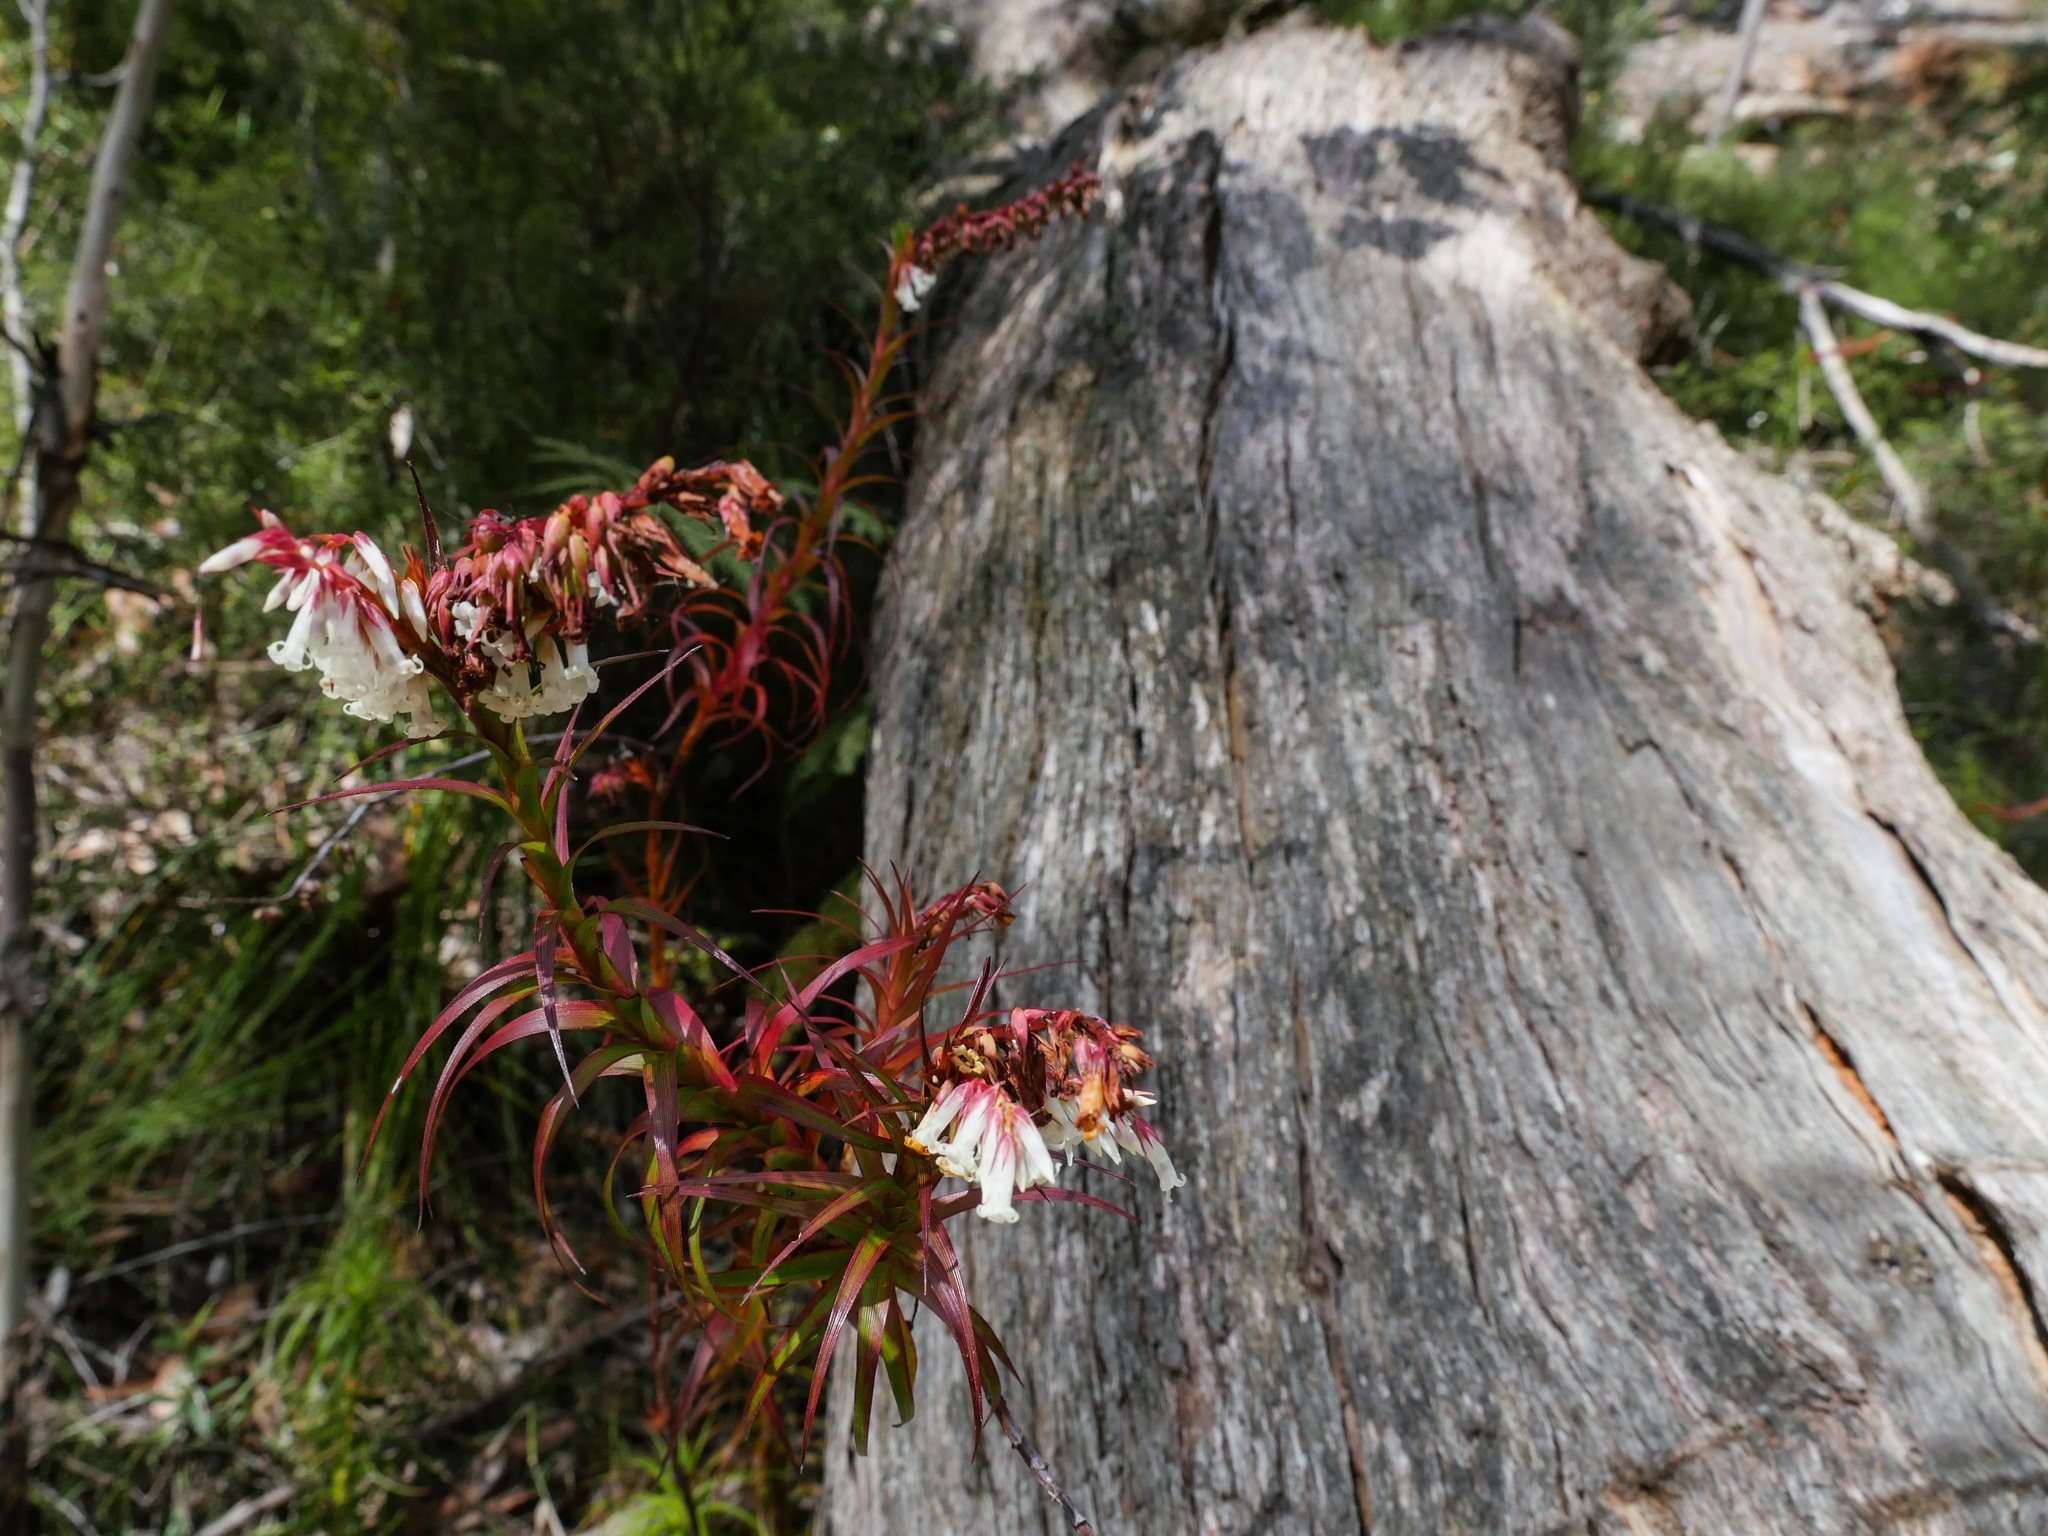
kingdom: Plantae
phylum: Tracheophyta
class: Magnoliopsida
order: Ericales
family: Ericaceae
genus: Dracophyllum
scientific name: Dracophyllum secundum
